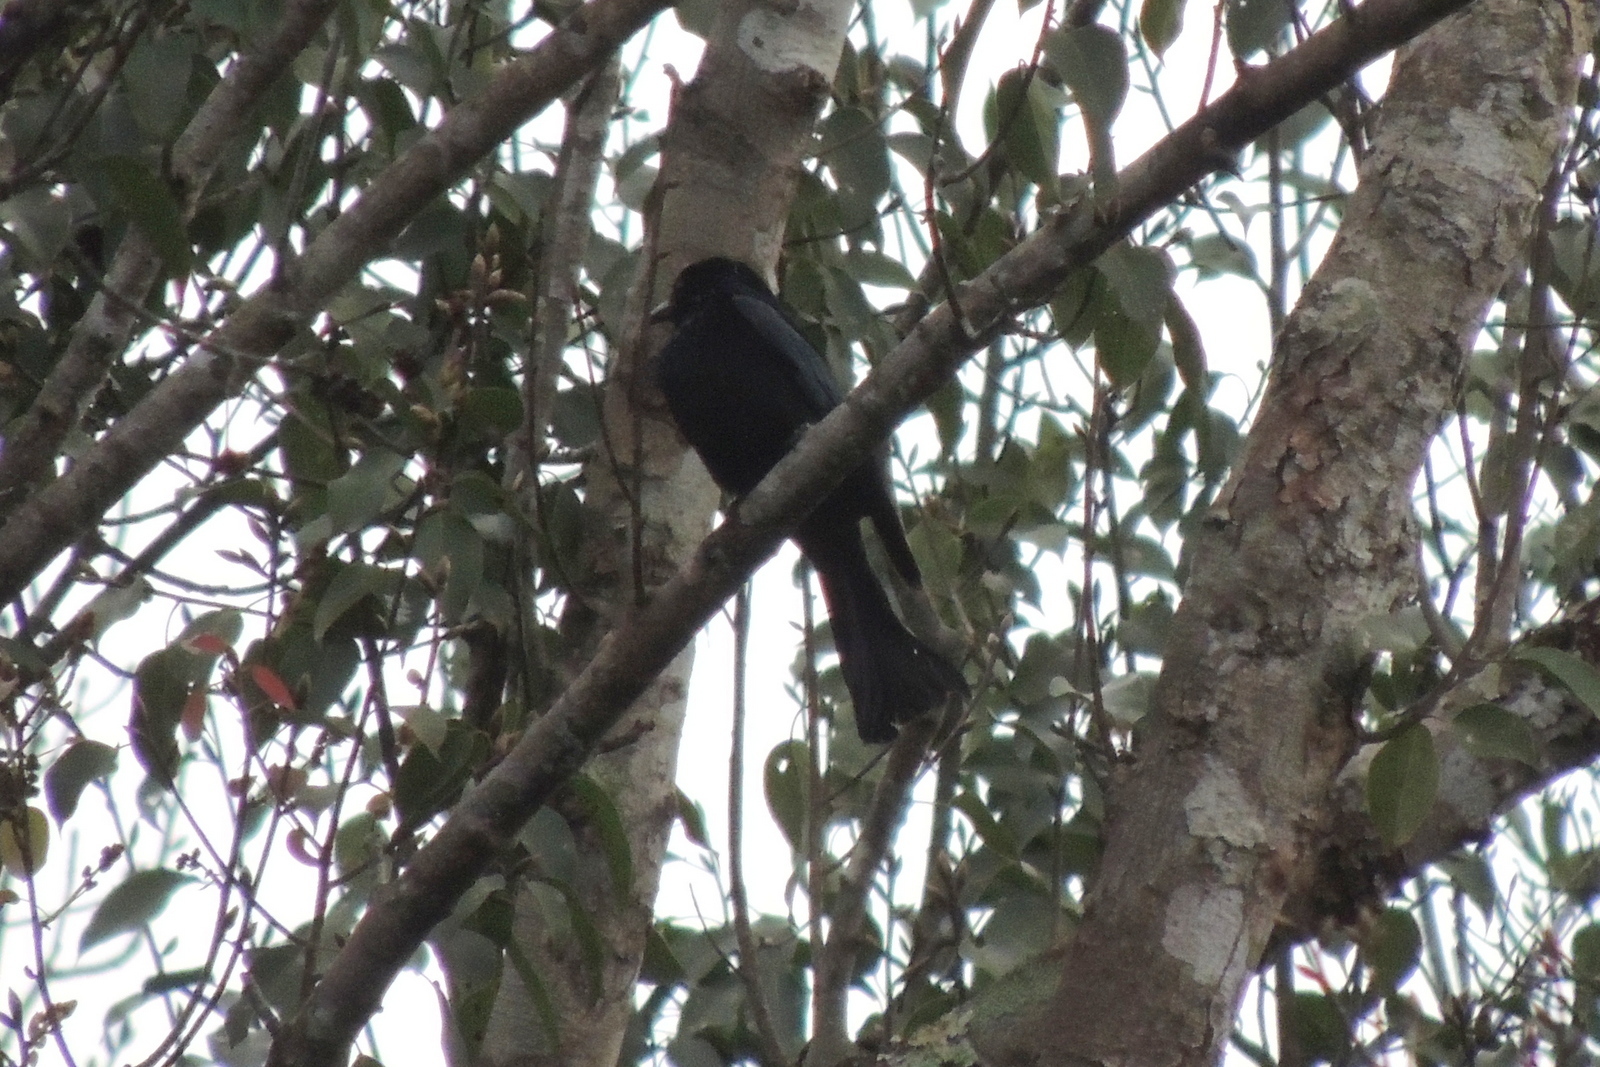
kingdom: Animalia
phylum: Chordata
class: Aves
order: Passeriformes
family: Dicruridae
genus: Dicrurus
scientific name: Dicrurus hottentottus
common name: Hair-crested drongo
